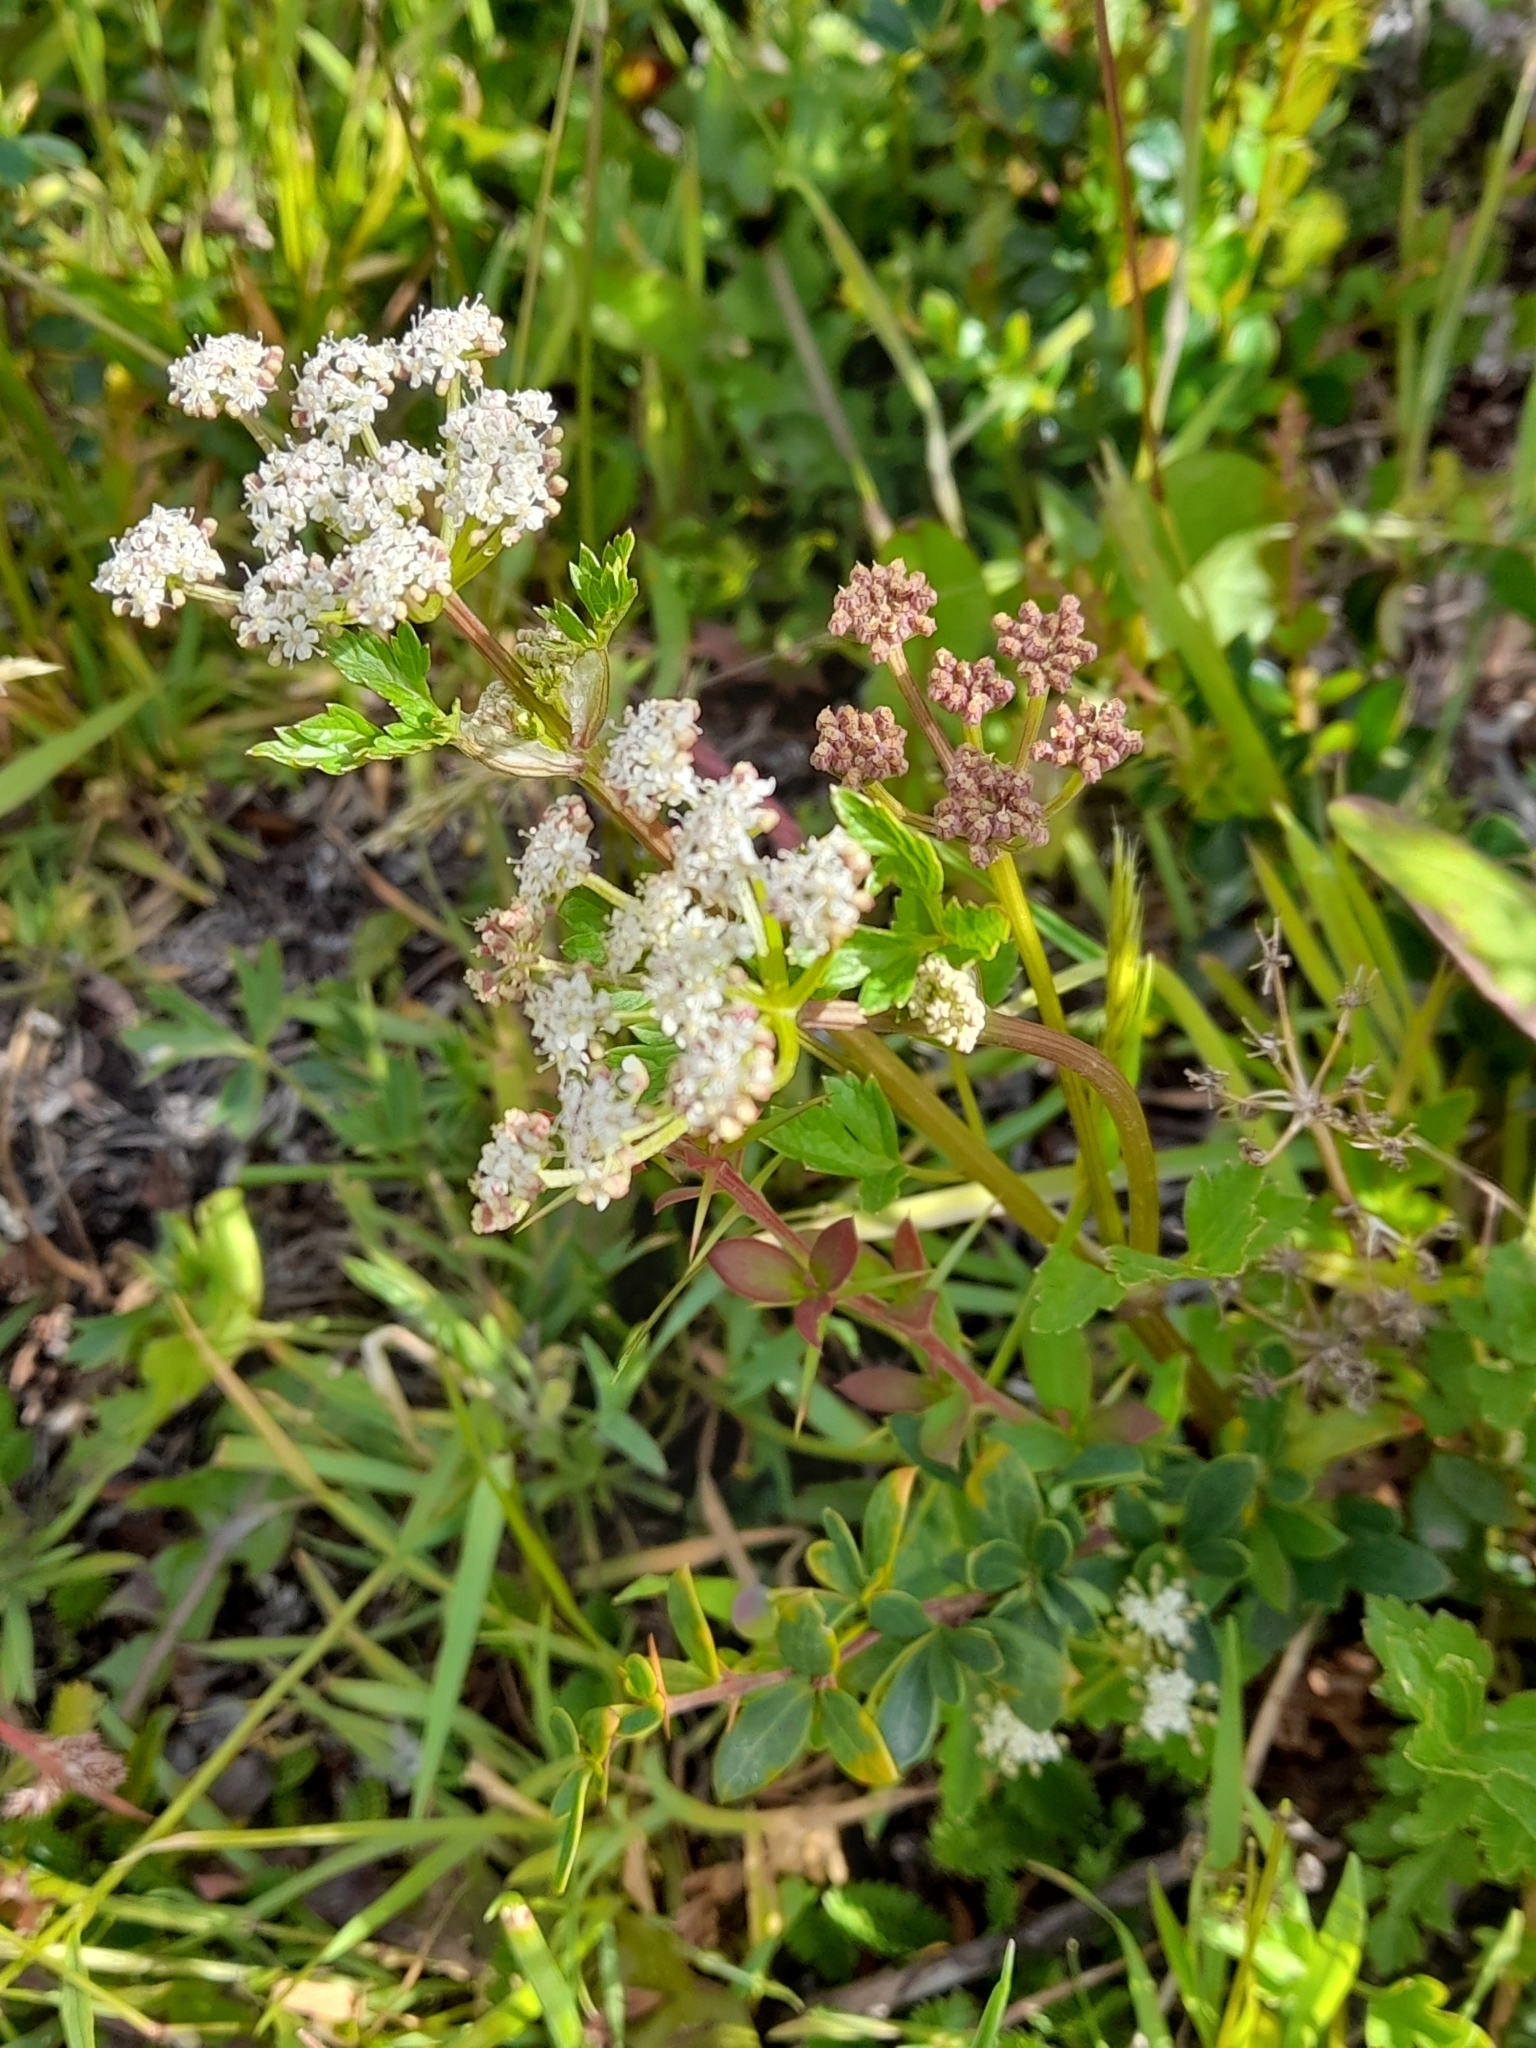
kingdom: Plantae
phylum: Tracheophyta
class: Magnoliopsida
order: Apiales
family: Apiaceae
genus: Apium
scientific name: Apium prostratum
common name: Prostrate marshwort
